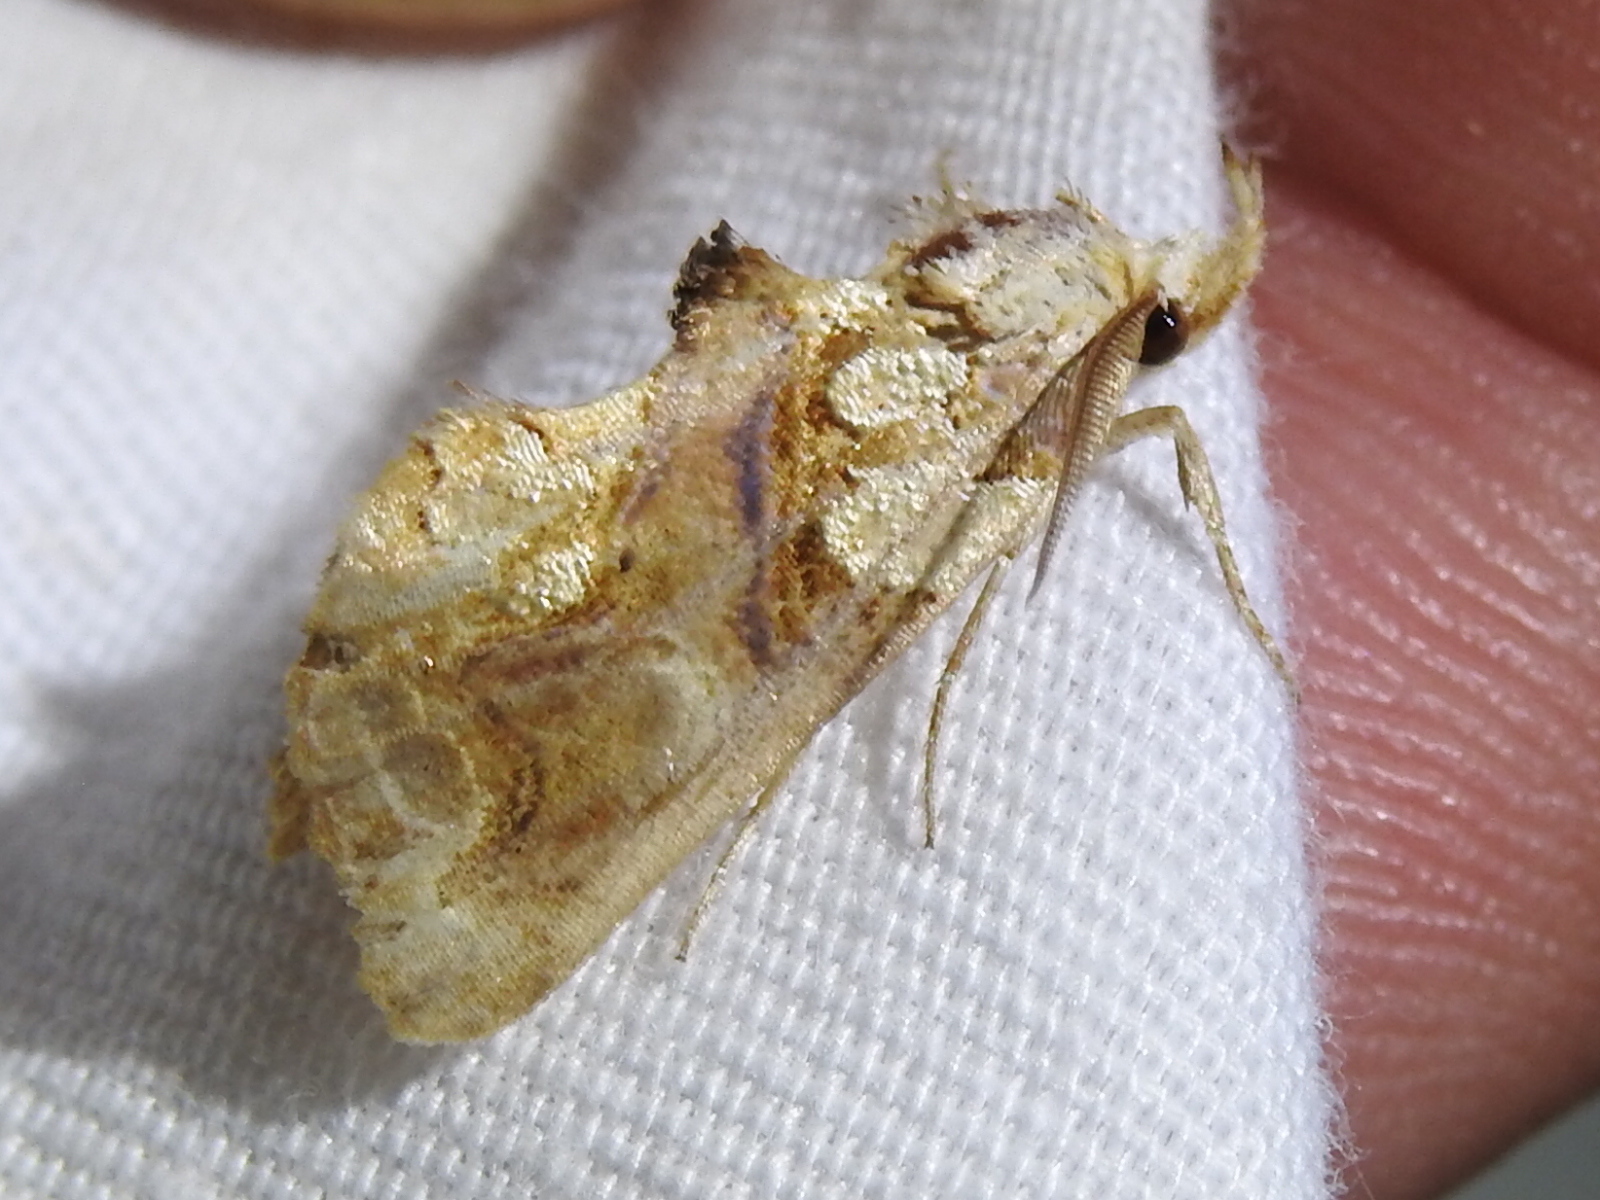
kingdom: Animalia
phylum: Arthropoda
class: Insecta
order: Lepidoptera
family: Erebidae
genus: Plusiodonta
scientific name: Plusiodonta compressipalpis
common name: Moonseed moth
